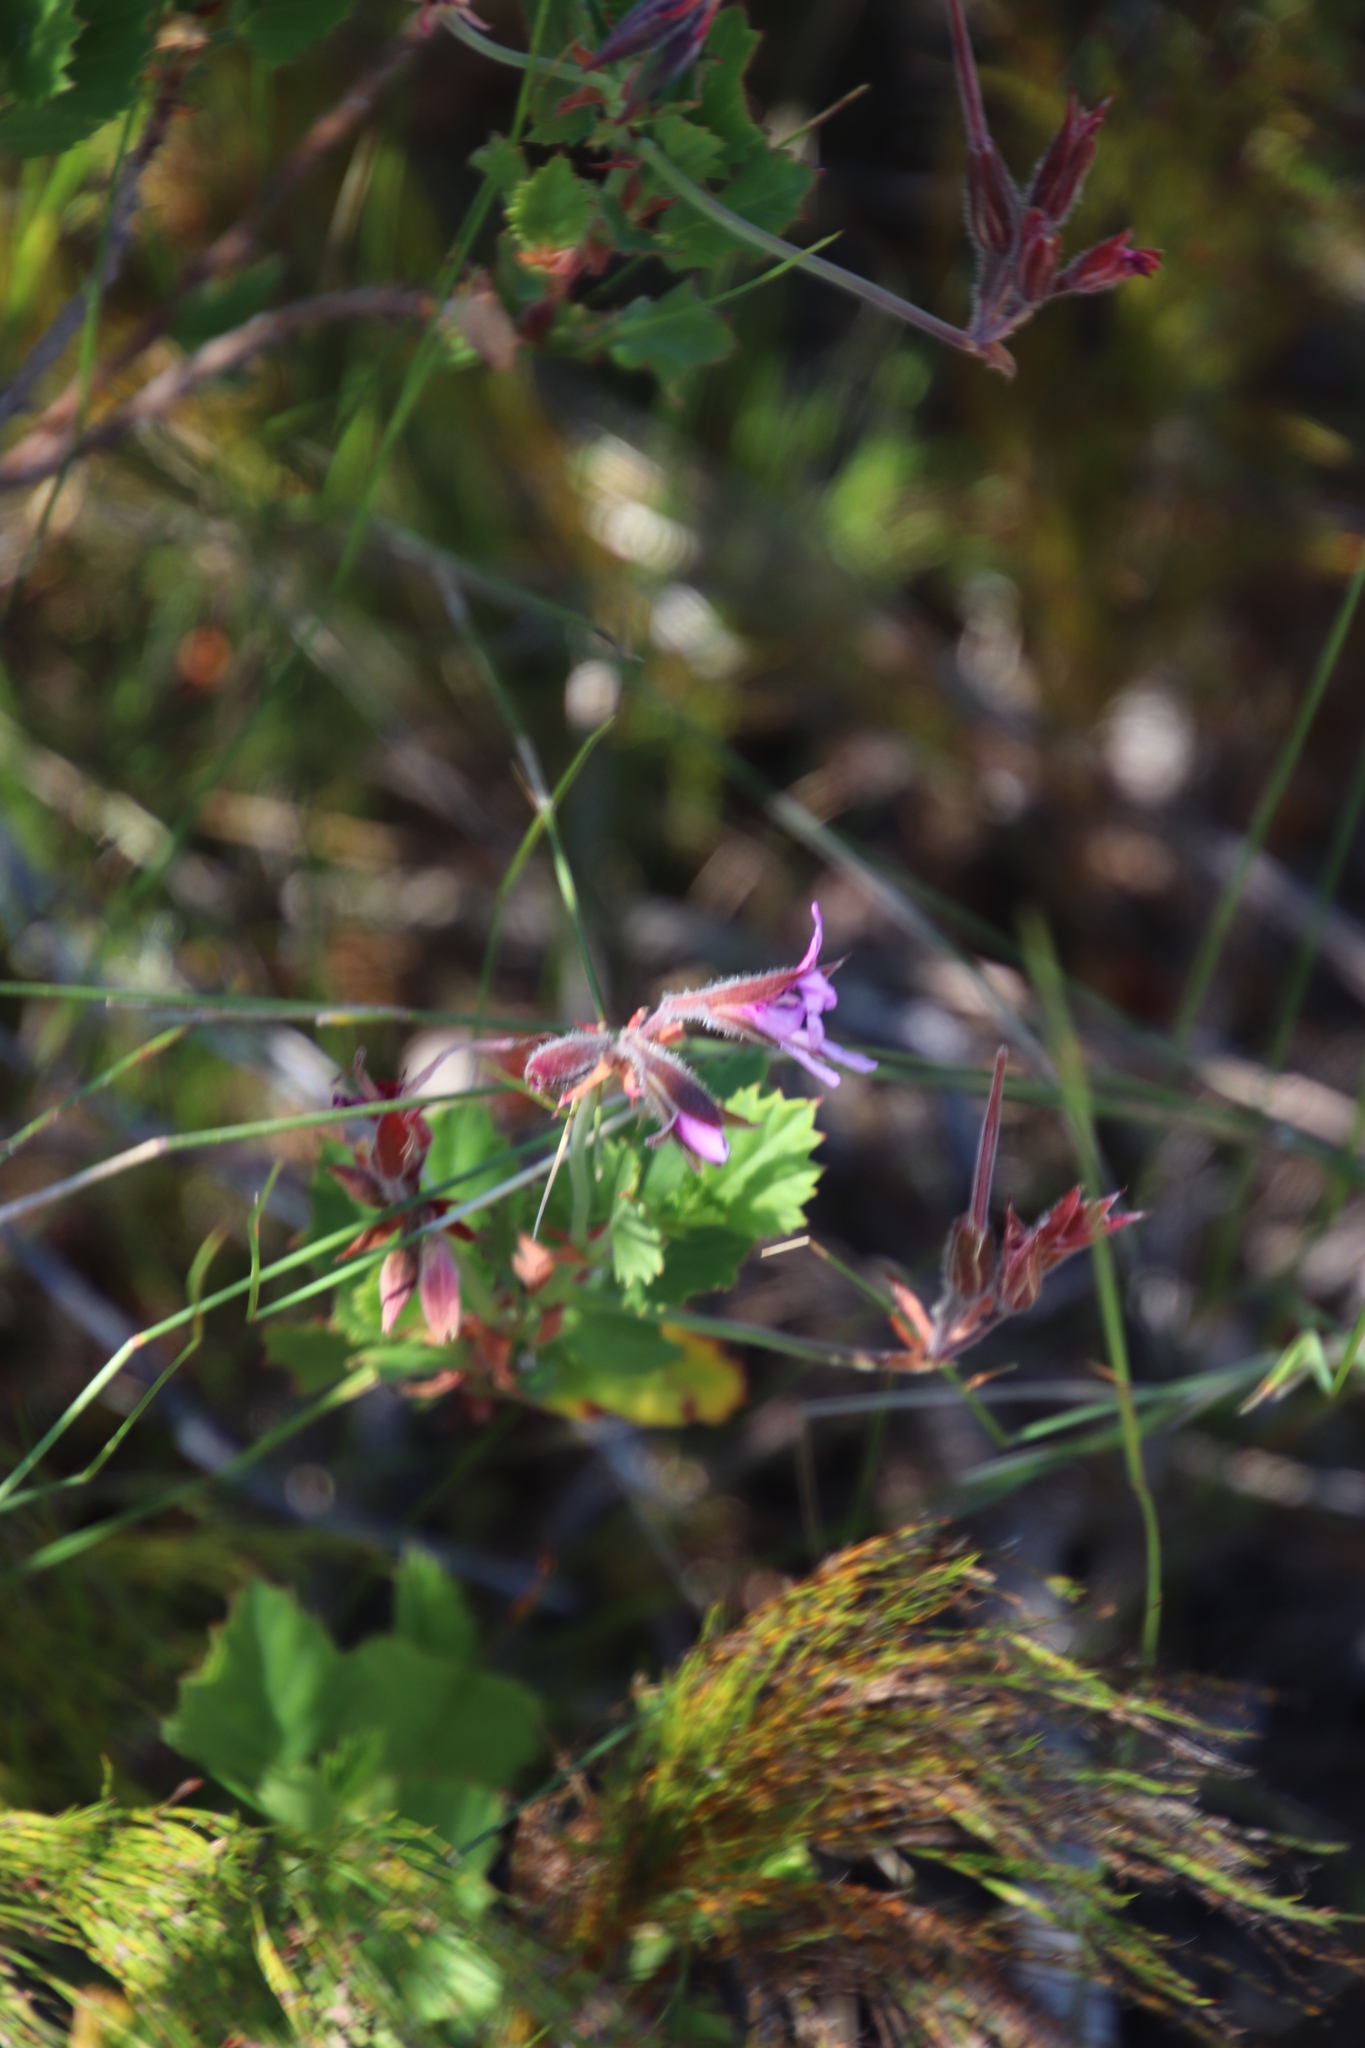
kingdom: Plantae
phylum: Tracheophyta
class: Magnoliopsida
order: Geraniales
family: Geraniaceae
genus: Pelargonium
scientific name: Pelargonium betulinum
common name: Birch-leaf pelargonium
